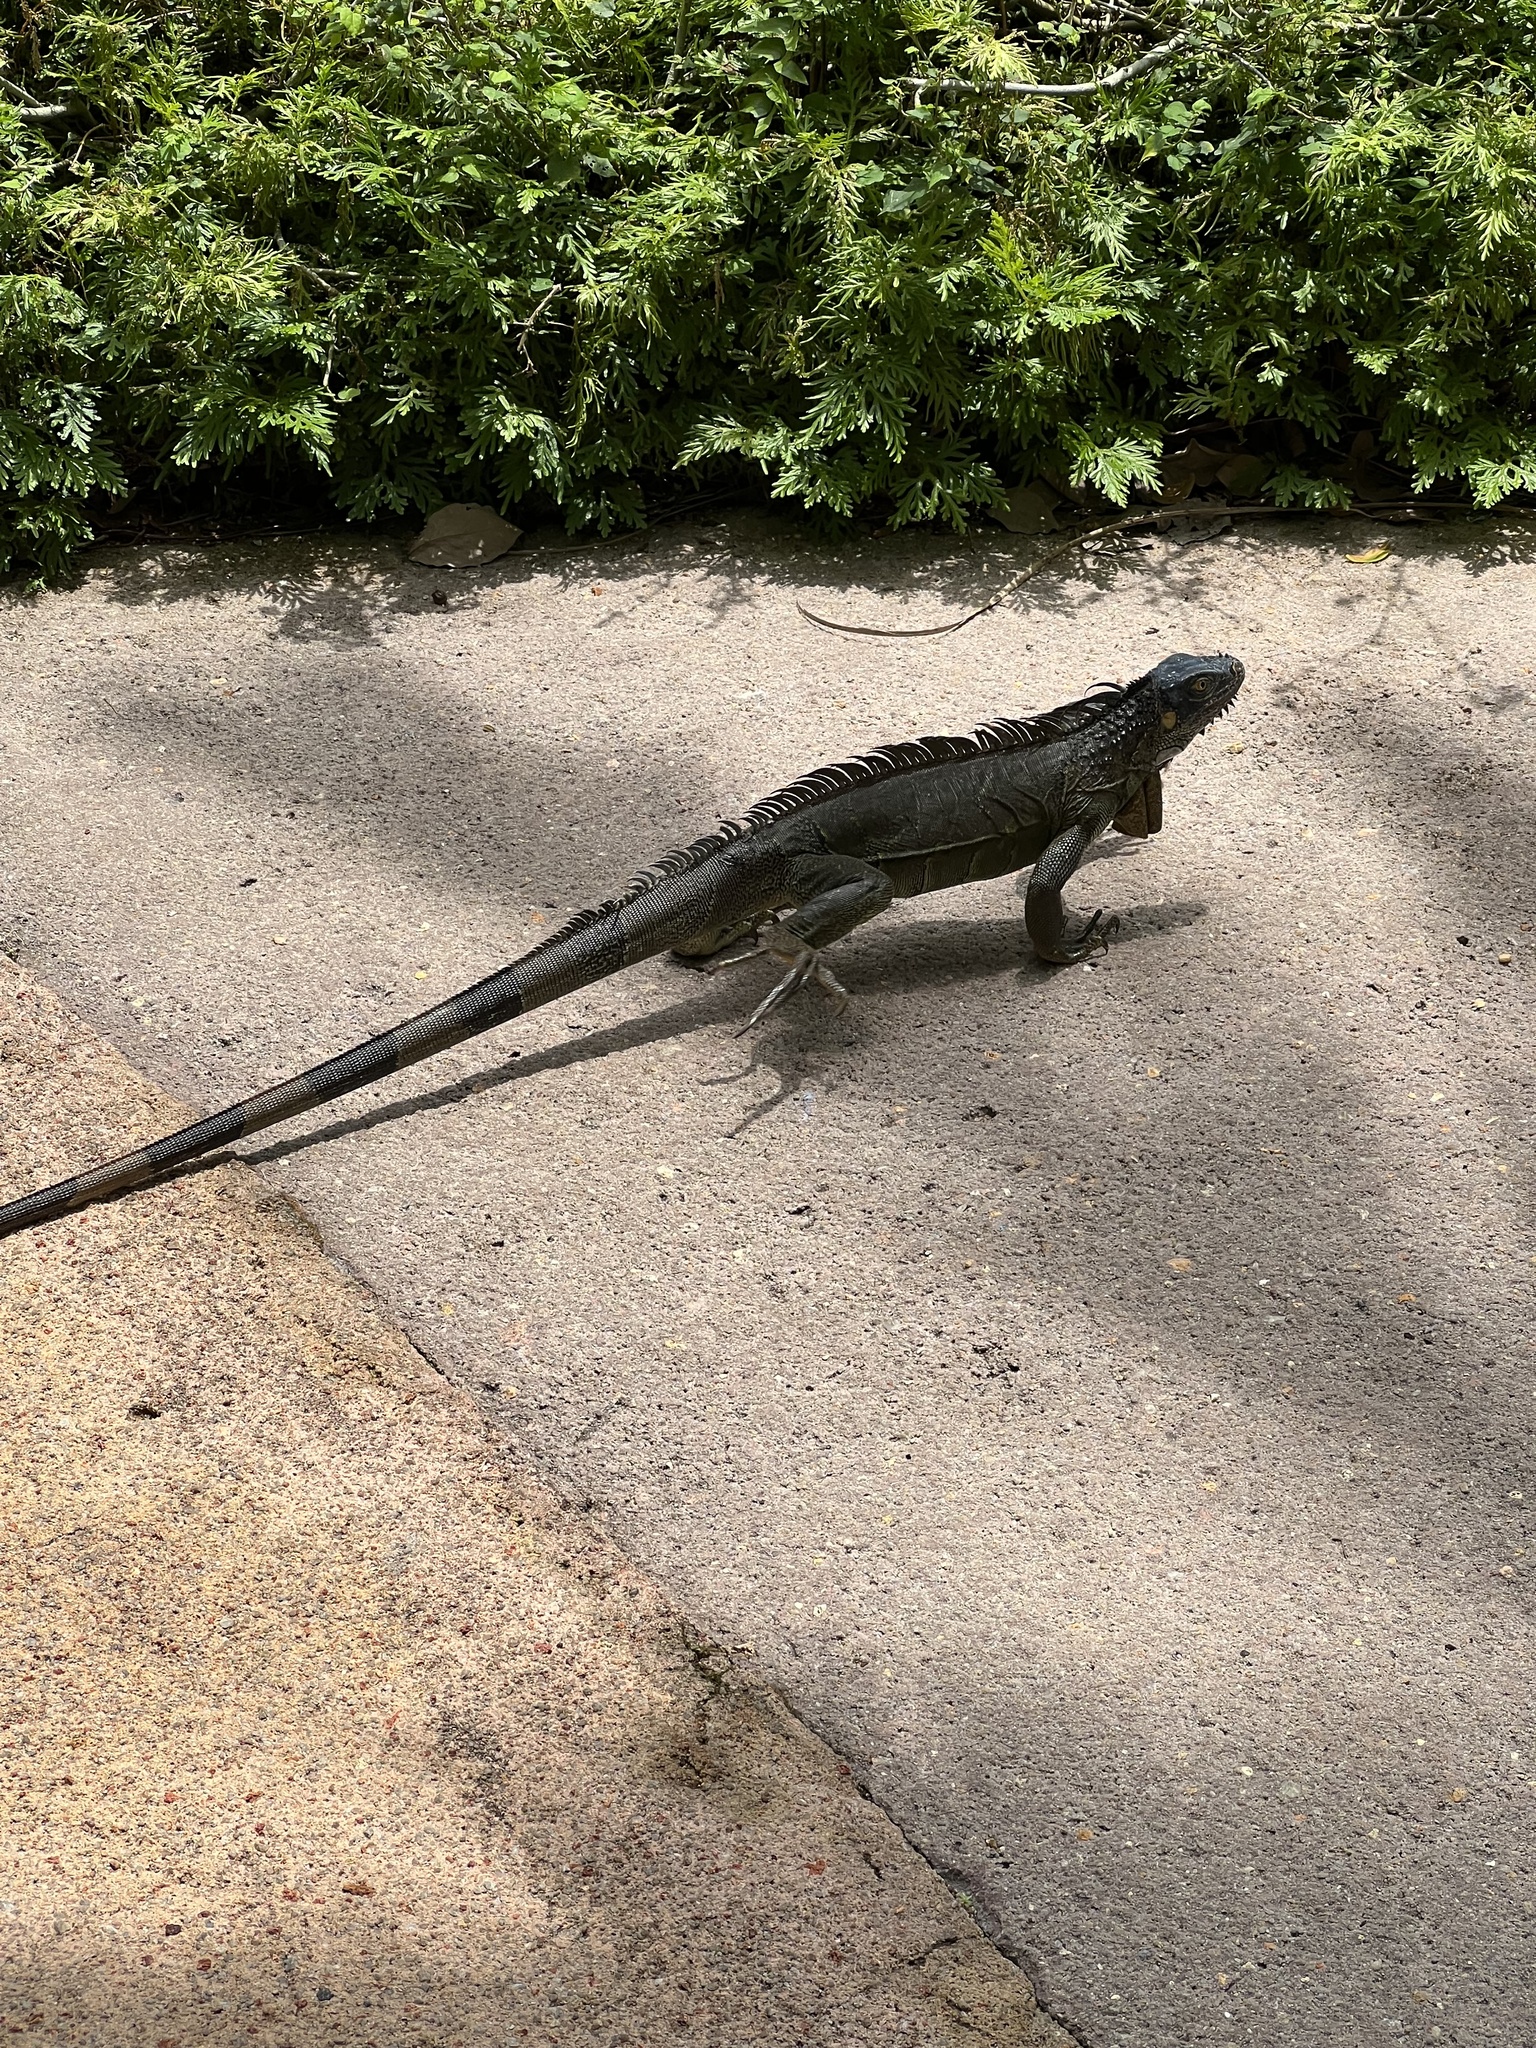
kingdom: Animalia
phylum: Chordata
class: Squamata
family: Iguanidae
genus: Iguana
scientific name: Iguana iguana
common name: Green iguana
